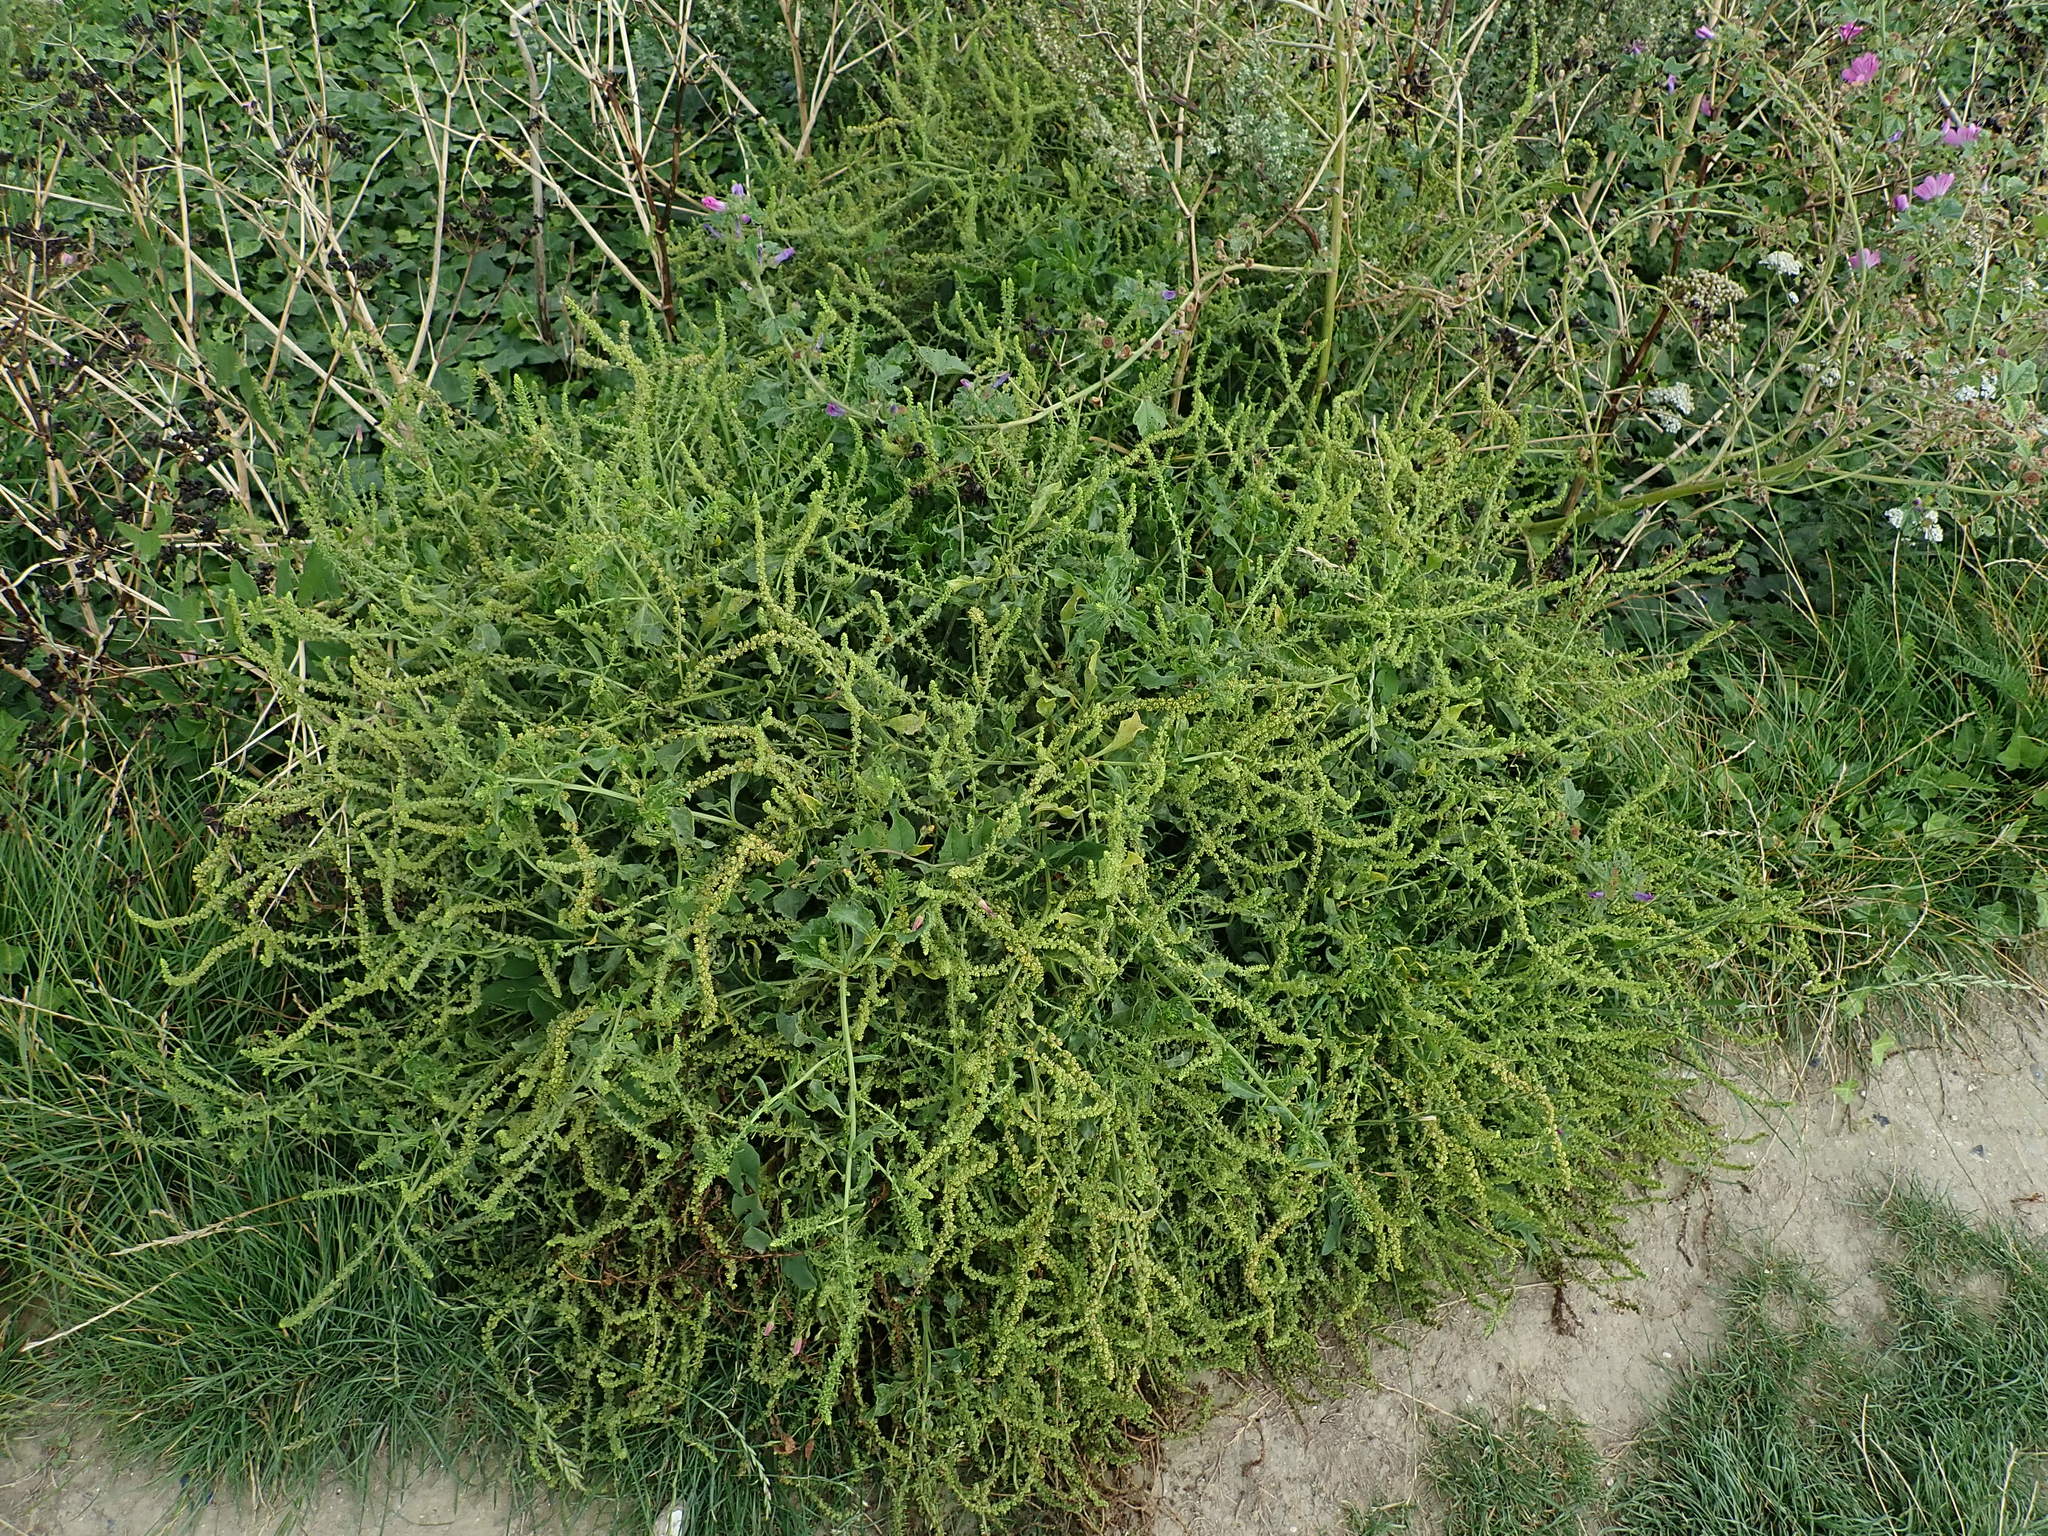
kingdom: Plantae
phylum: Tracheophyta
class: Magnoliopsida
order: Caryophyllales
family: Amaranthaceae
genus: Beta
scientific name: Beta vulgaris
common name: Beet
